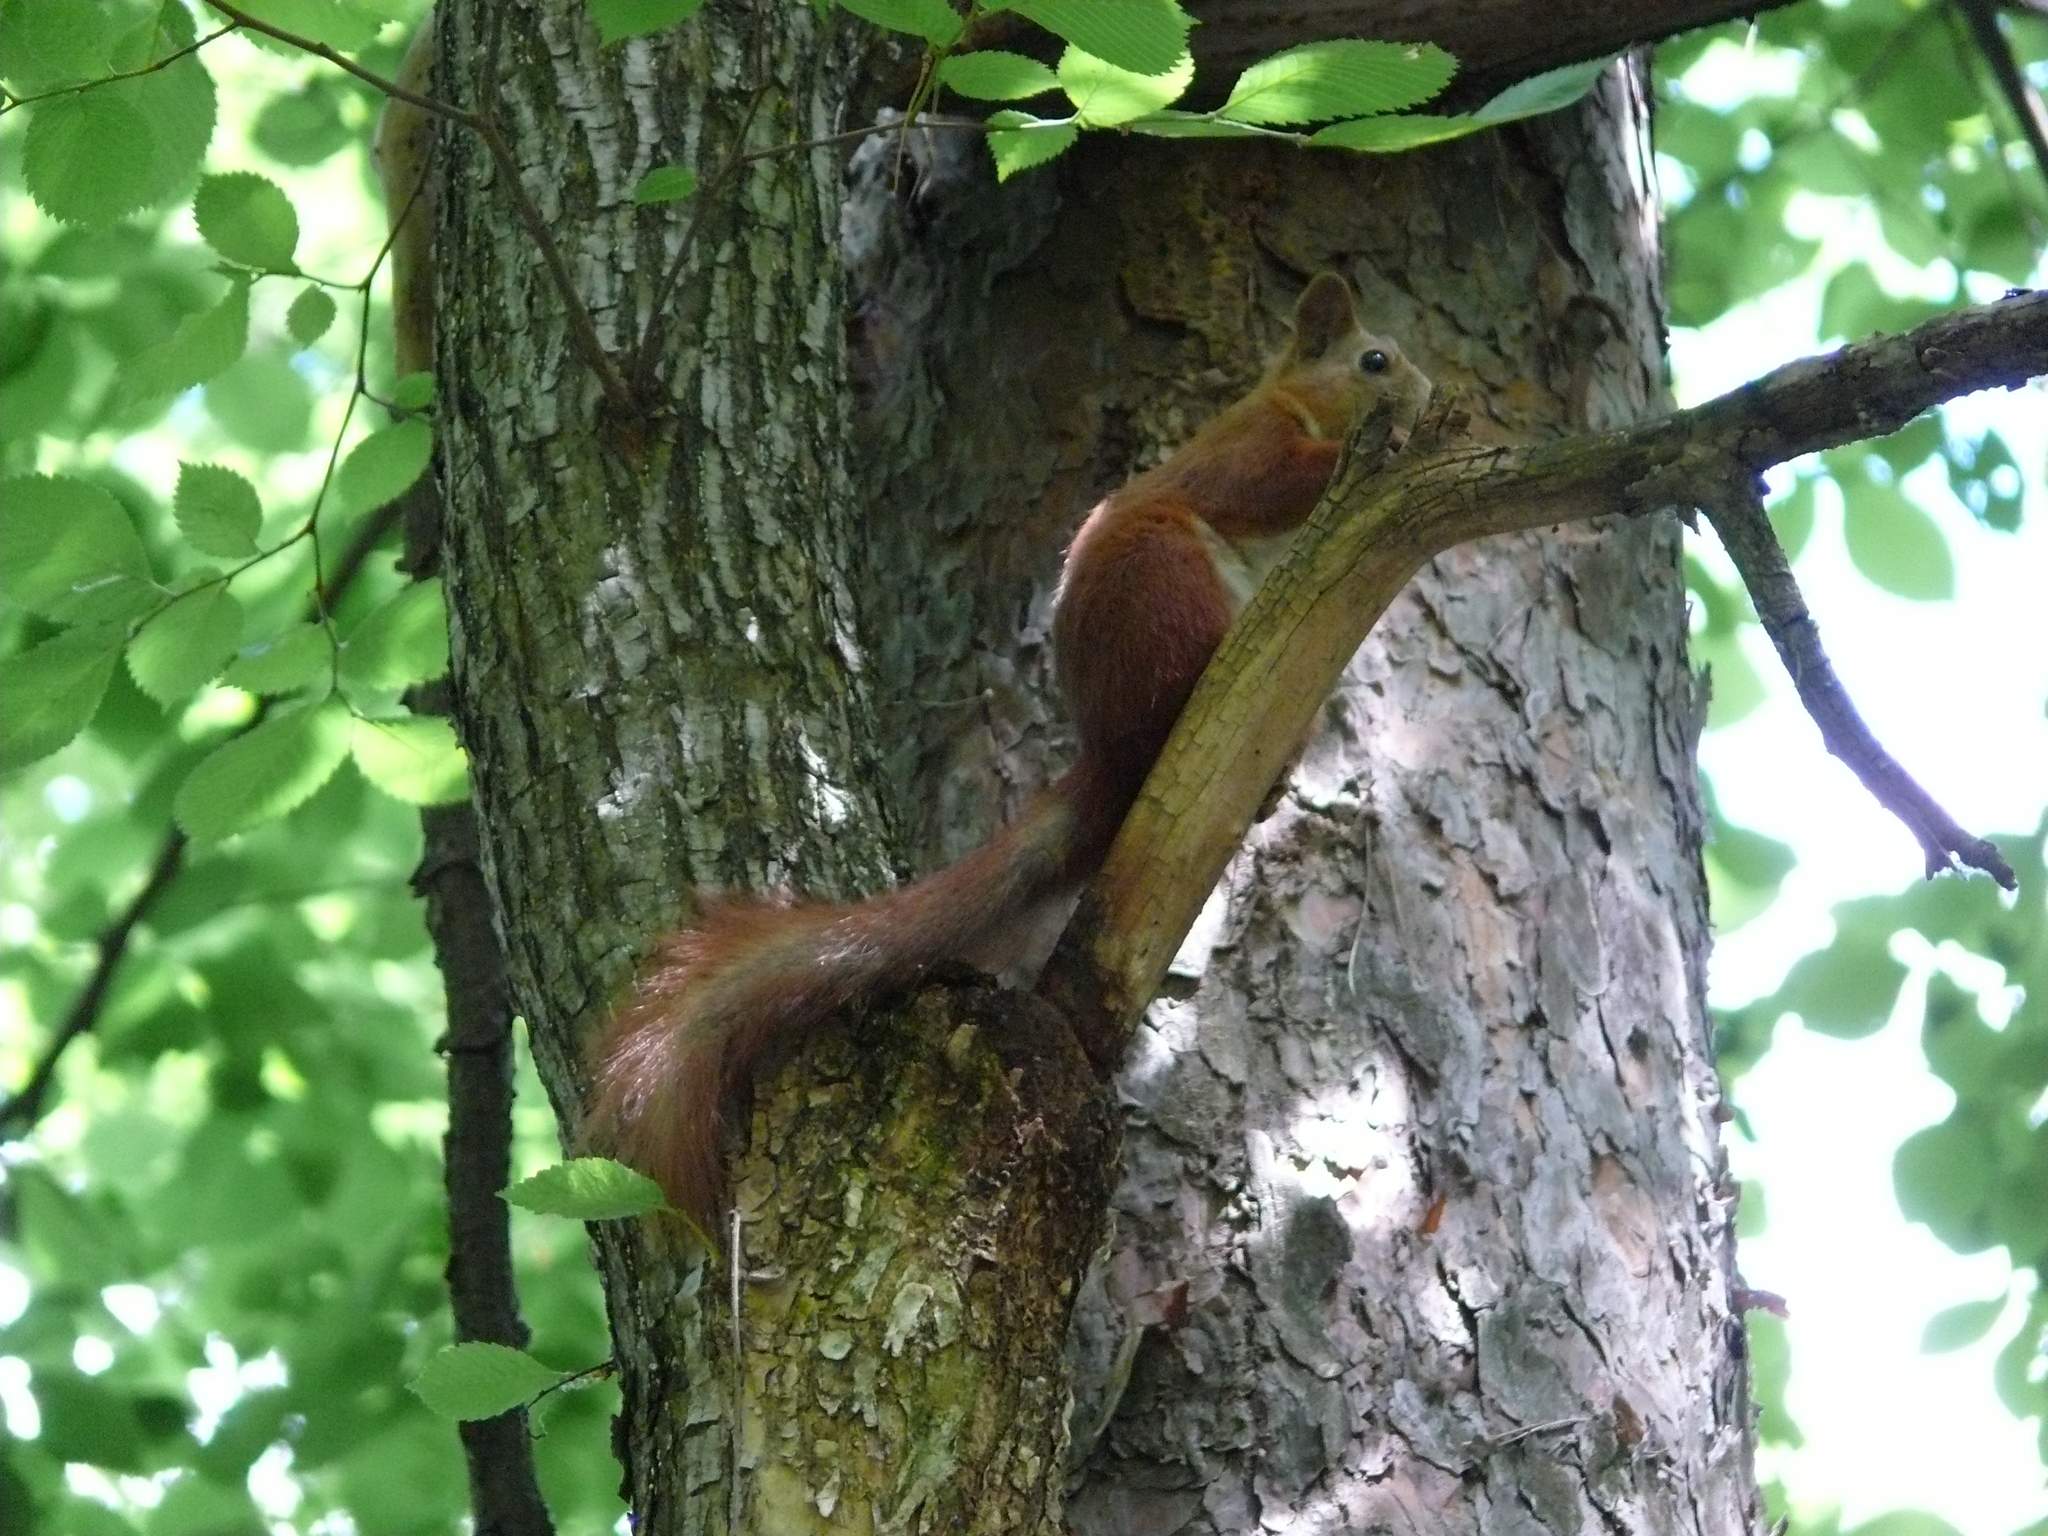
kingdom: Animalia
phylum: Chordata
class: Mammalia
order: Rodentia
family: Sciuridae
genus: Sciurus
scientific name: Sciurus vulgaris
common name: Eurasian red squirrel
